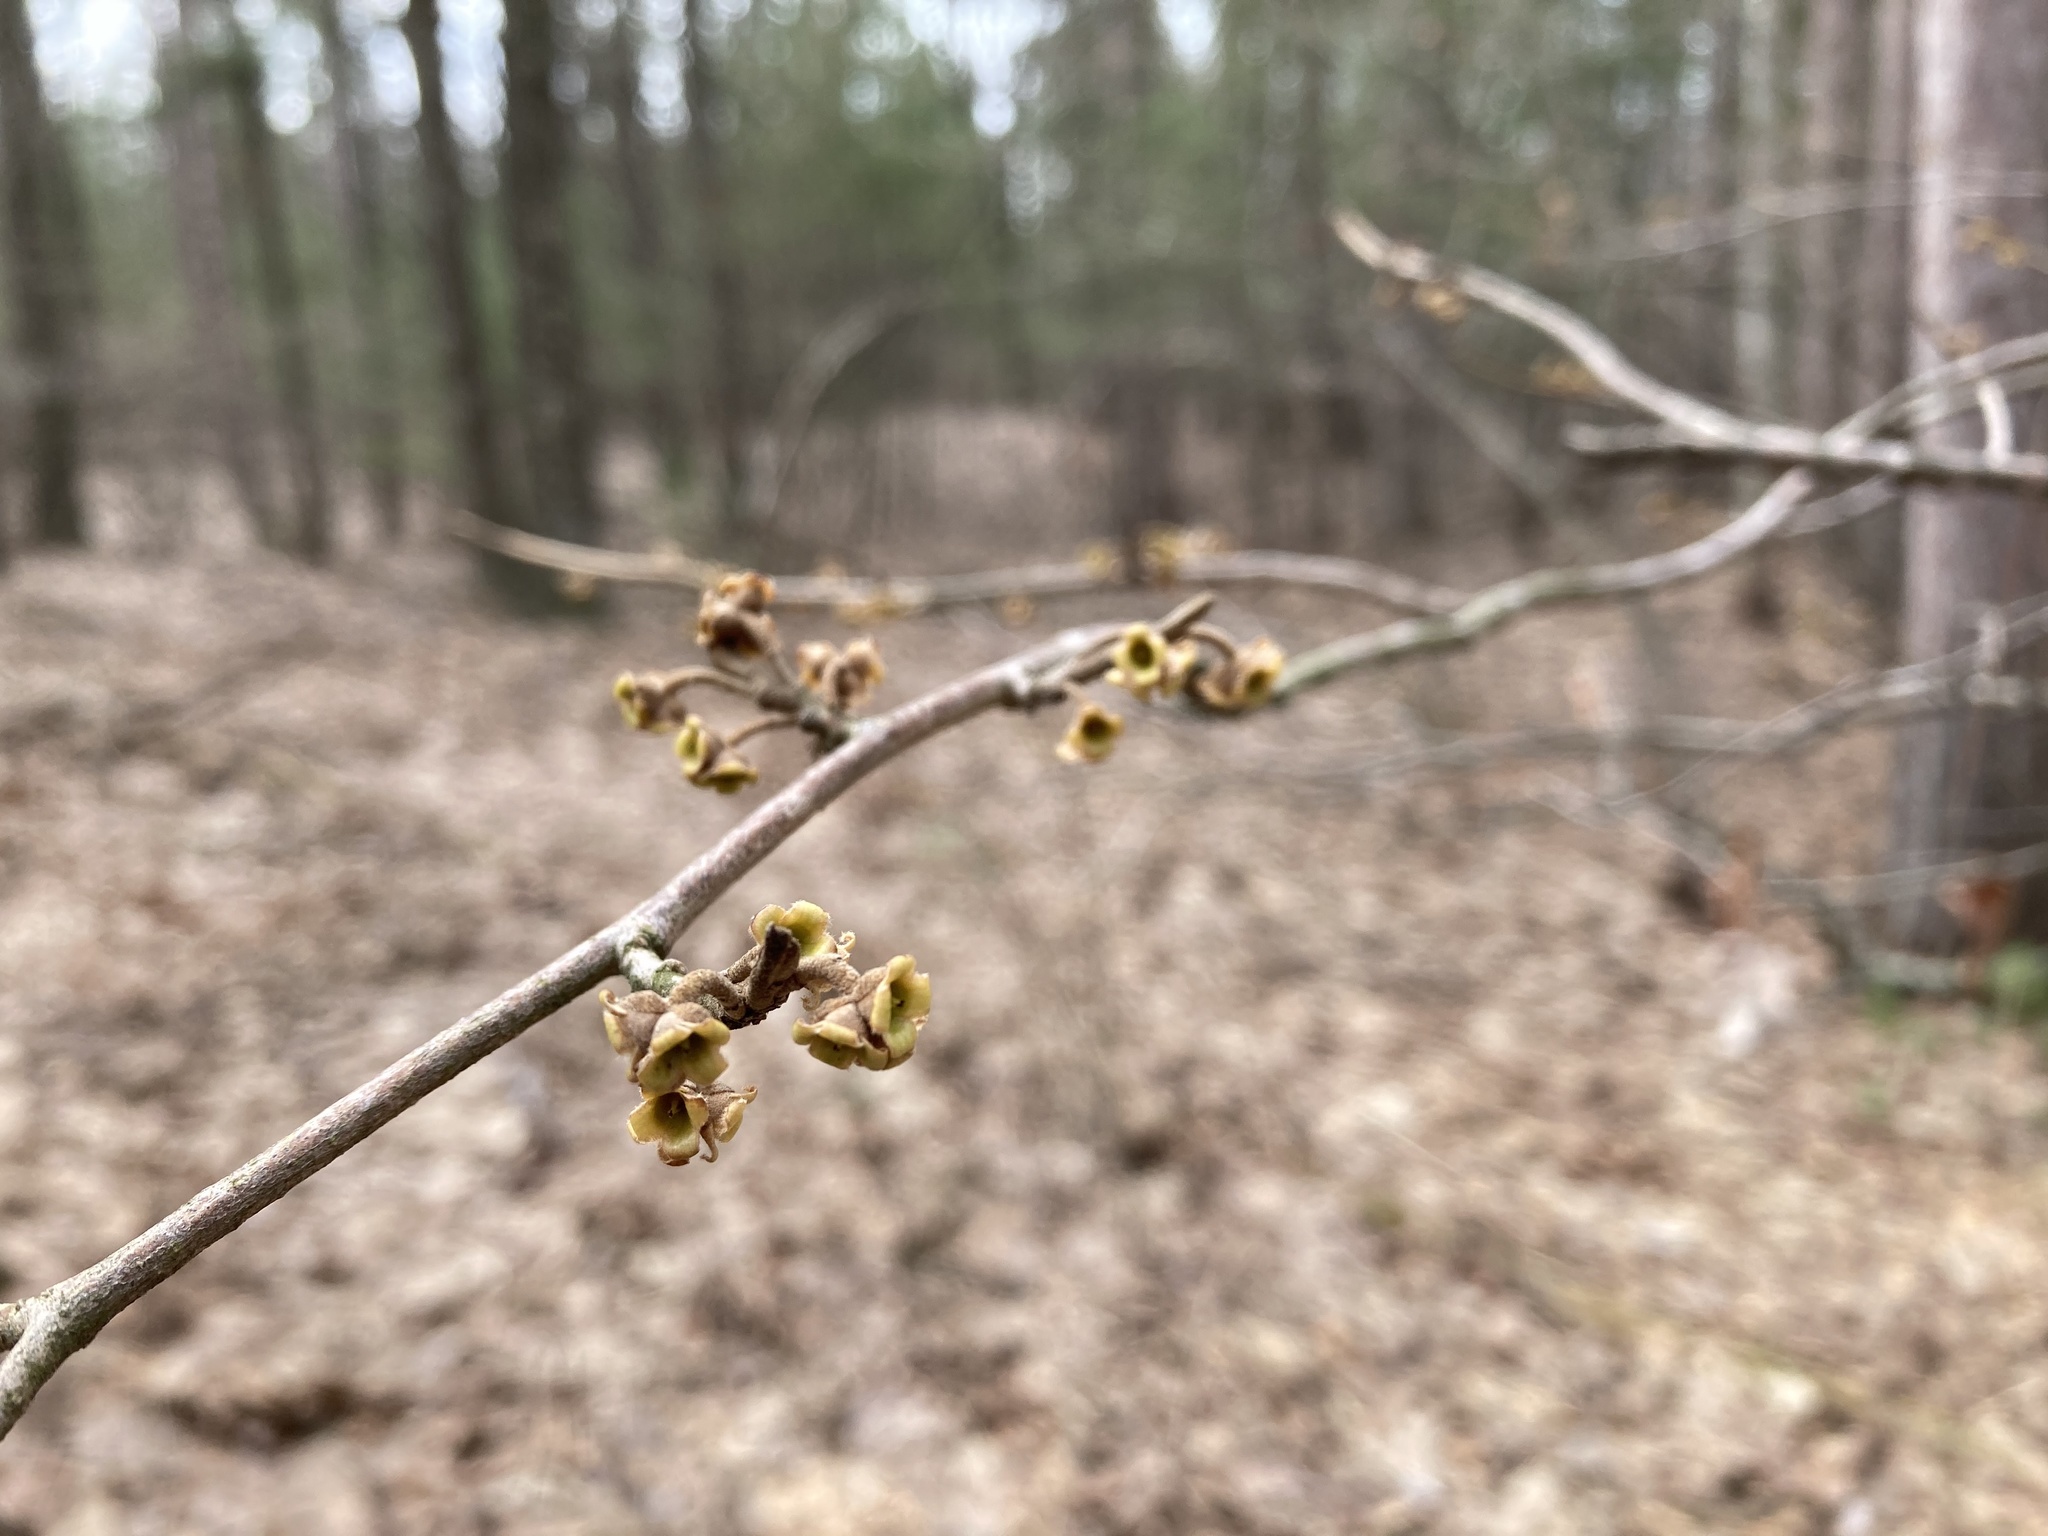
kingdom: Plantae
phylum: Tracheophyta
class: Magnoliopsida
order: Saxifragales
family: Hamamelidaceae
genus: Hamamelis
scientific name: Hamamelis virginiana
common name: Witch-hazel
